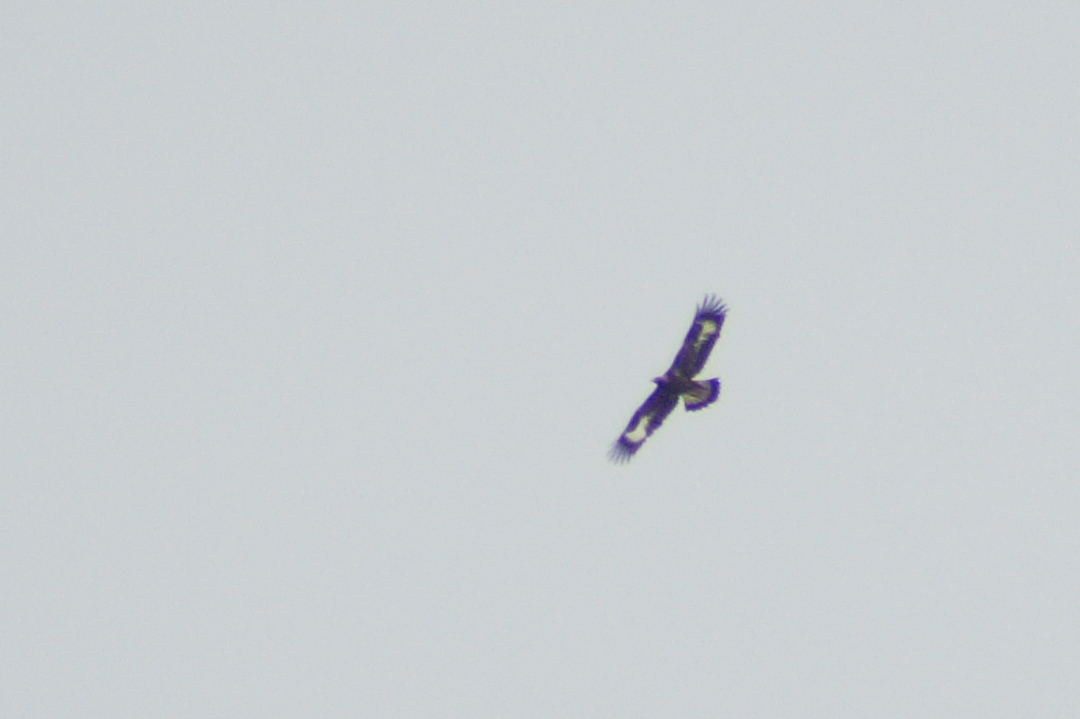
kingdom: Animalia
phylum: Chordata
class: Aves
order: Accipitriformes
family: Accipitridae
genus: Aquila
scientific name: Aquila chrysaetos
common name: Golden eagle
